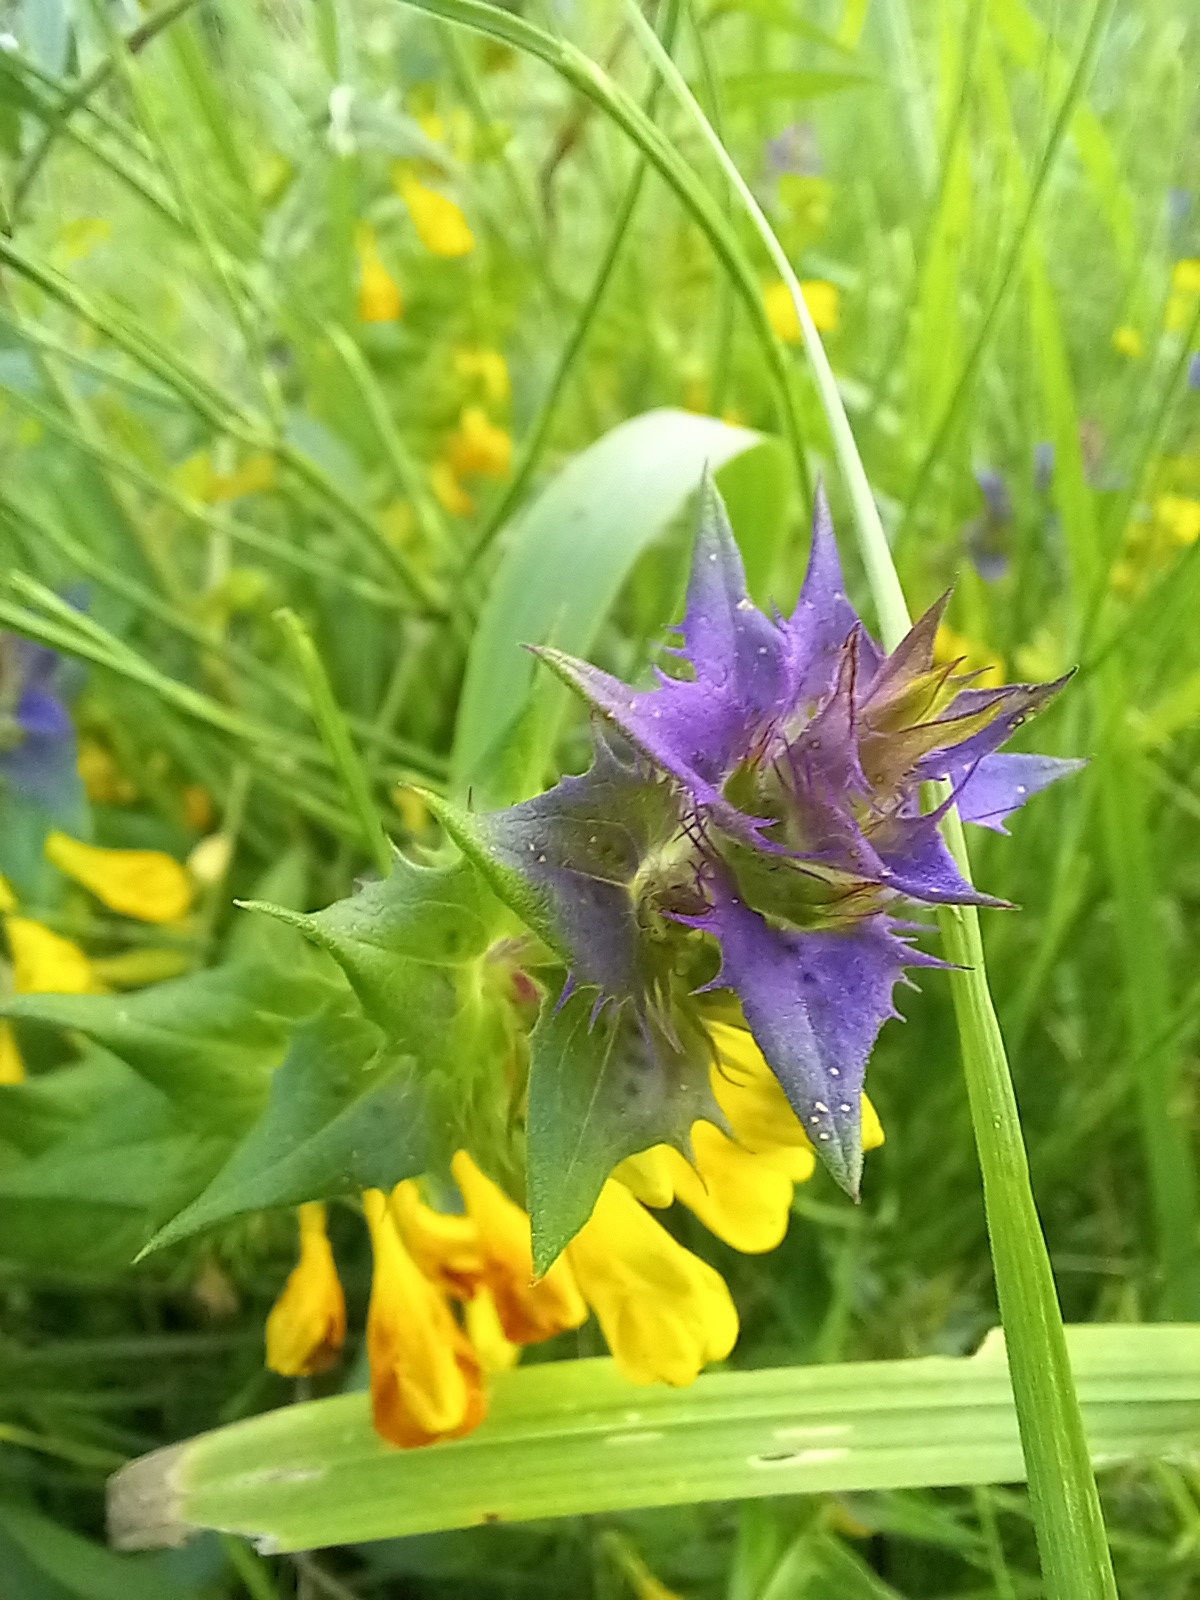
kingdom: Plantae
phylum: Tracheophyta
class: Magnoliopsida
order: Lamiales
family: Orobanchaceae
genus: Melampyrum
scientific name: Melampyrum nemorosum
